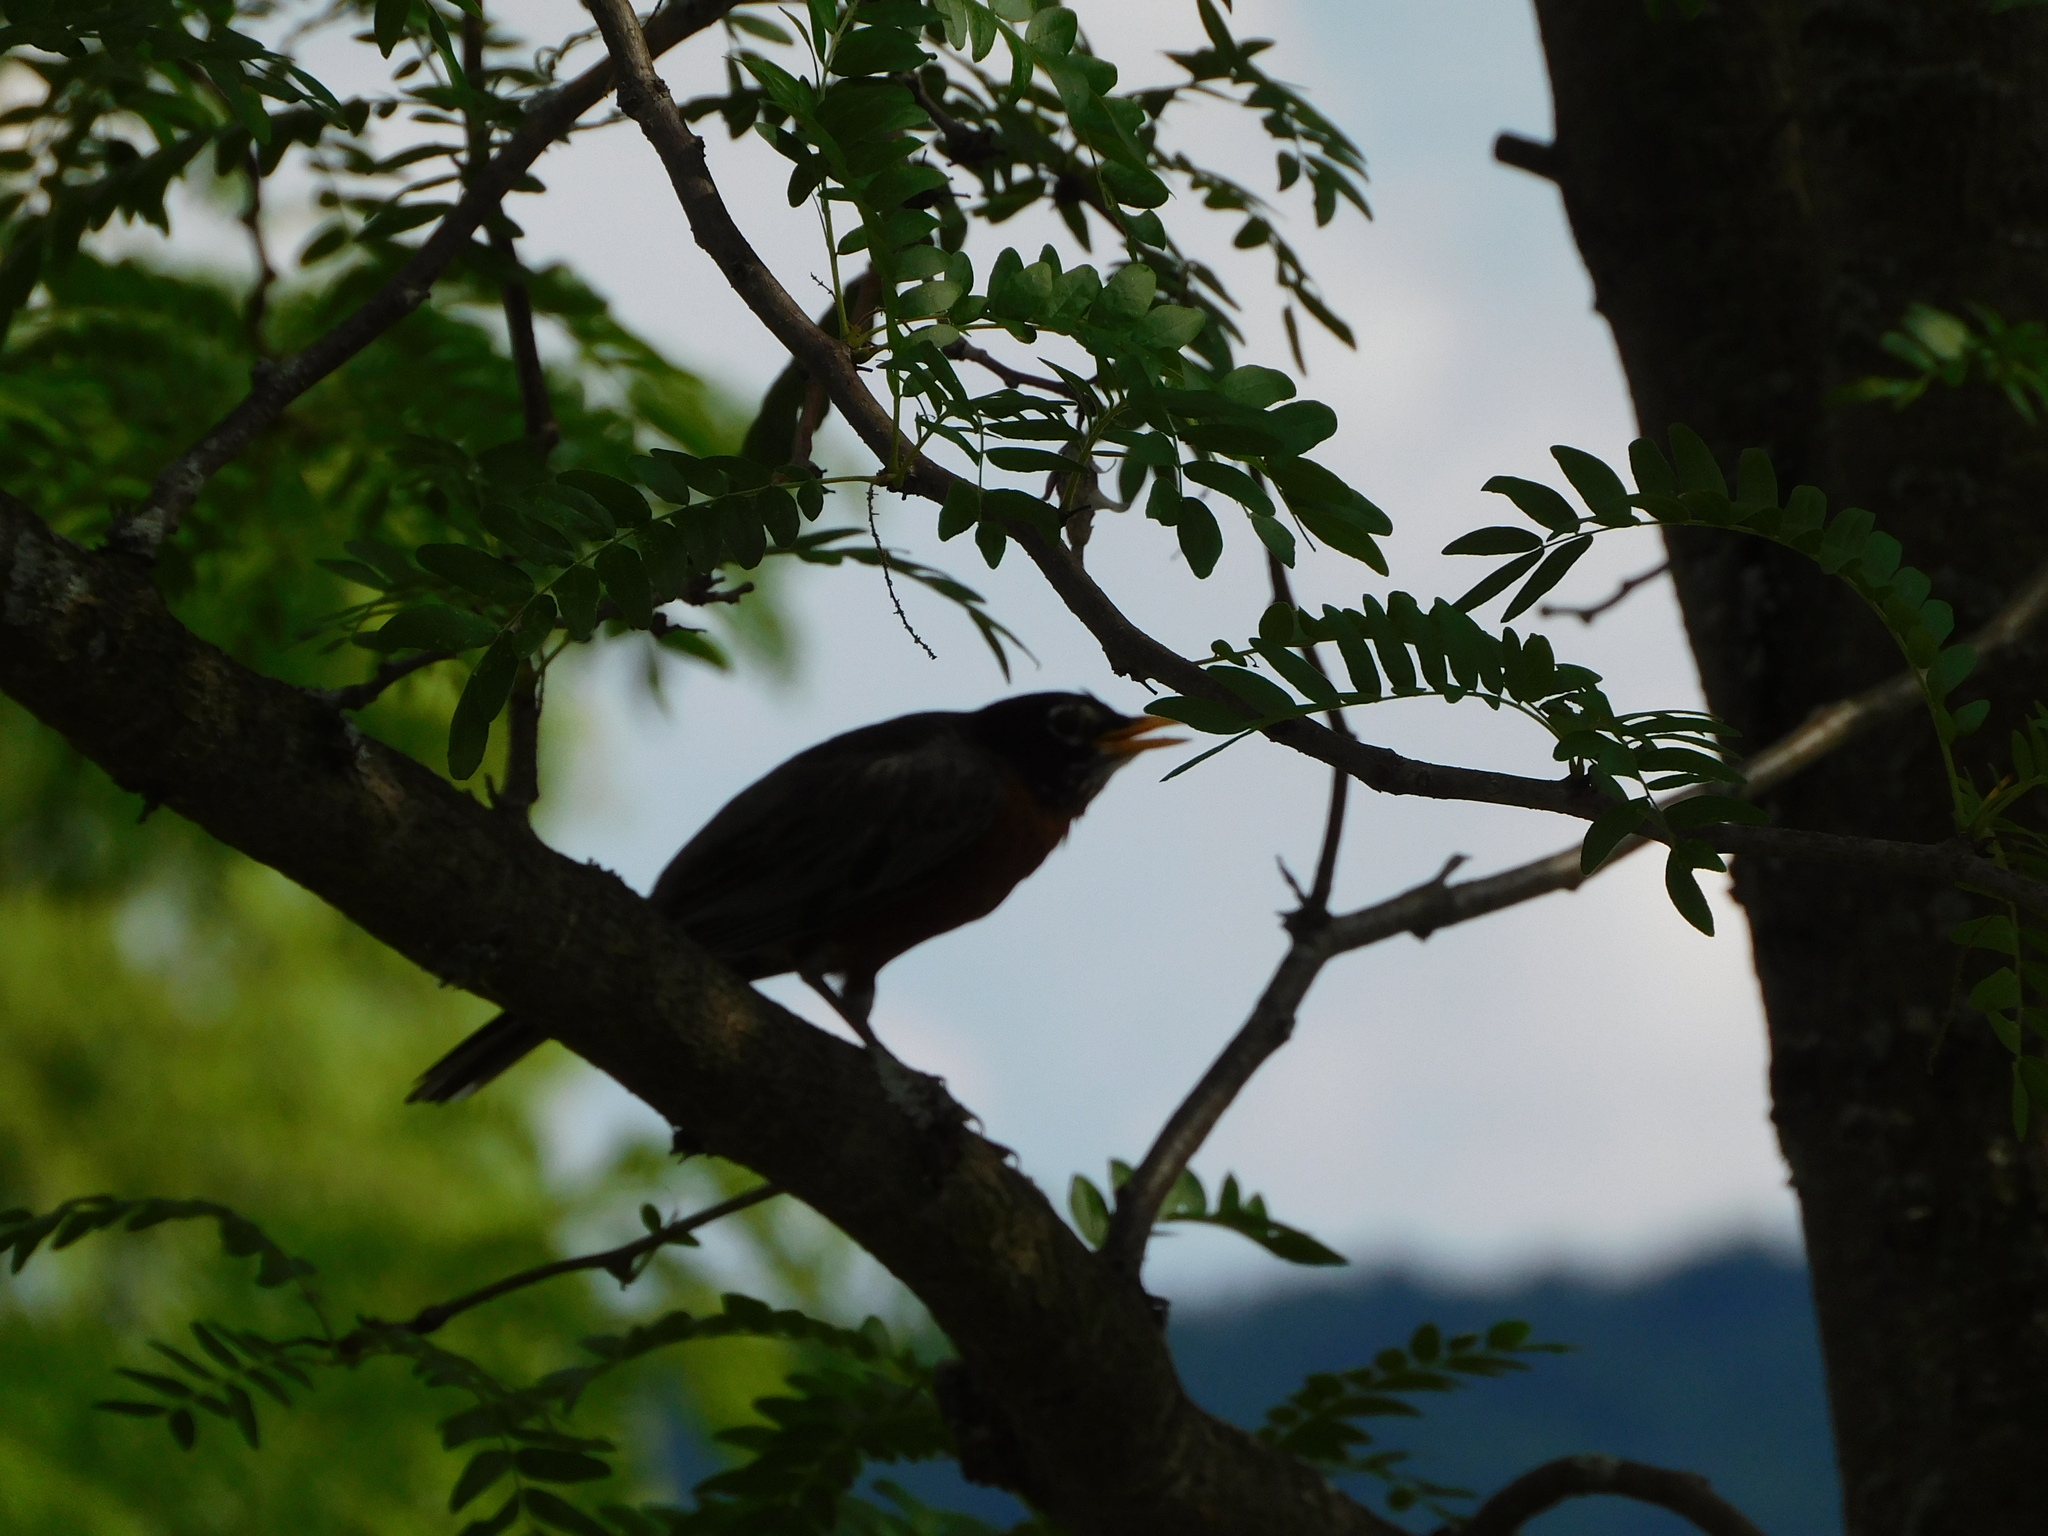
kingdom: Animalia
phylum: Chordata
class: Aves
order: Passeriformes
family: Turdidae
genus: Turdus
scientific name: Turdus migratorius
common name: American robin
